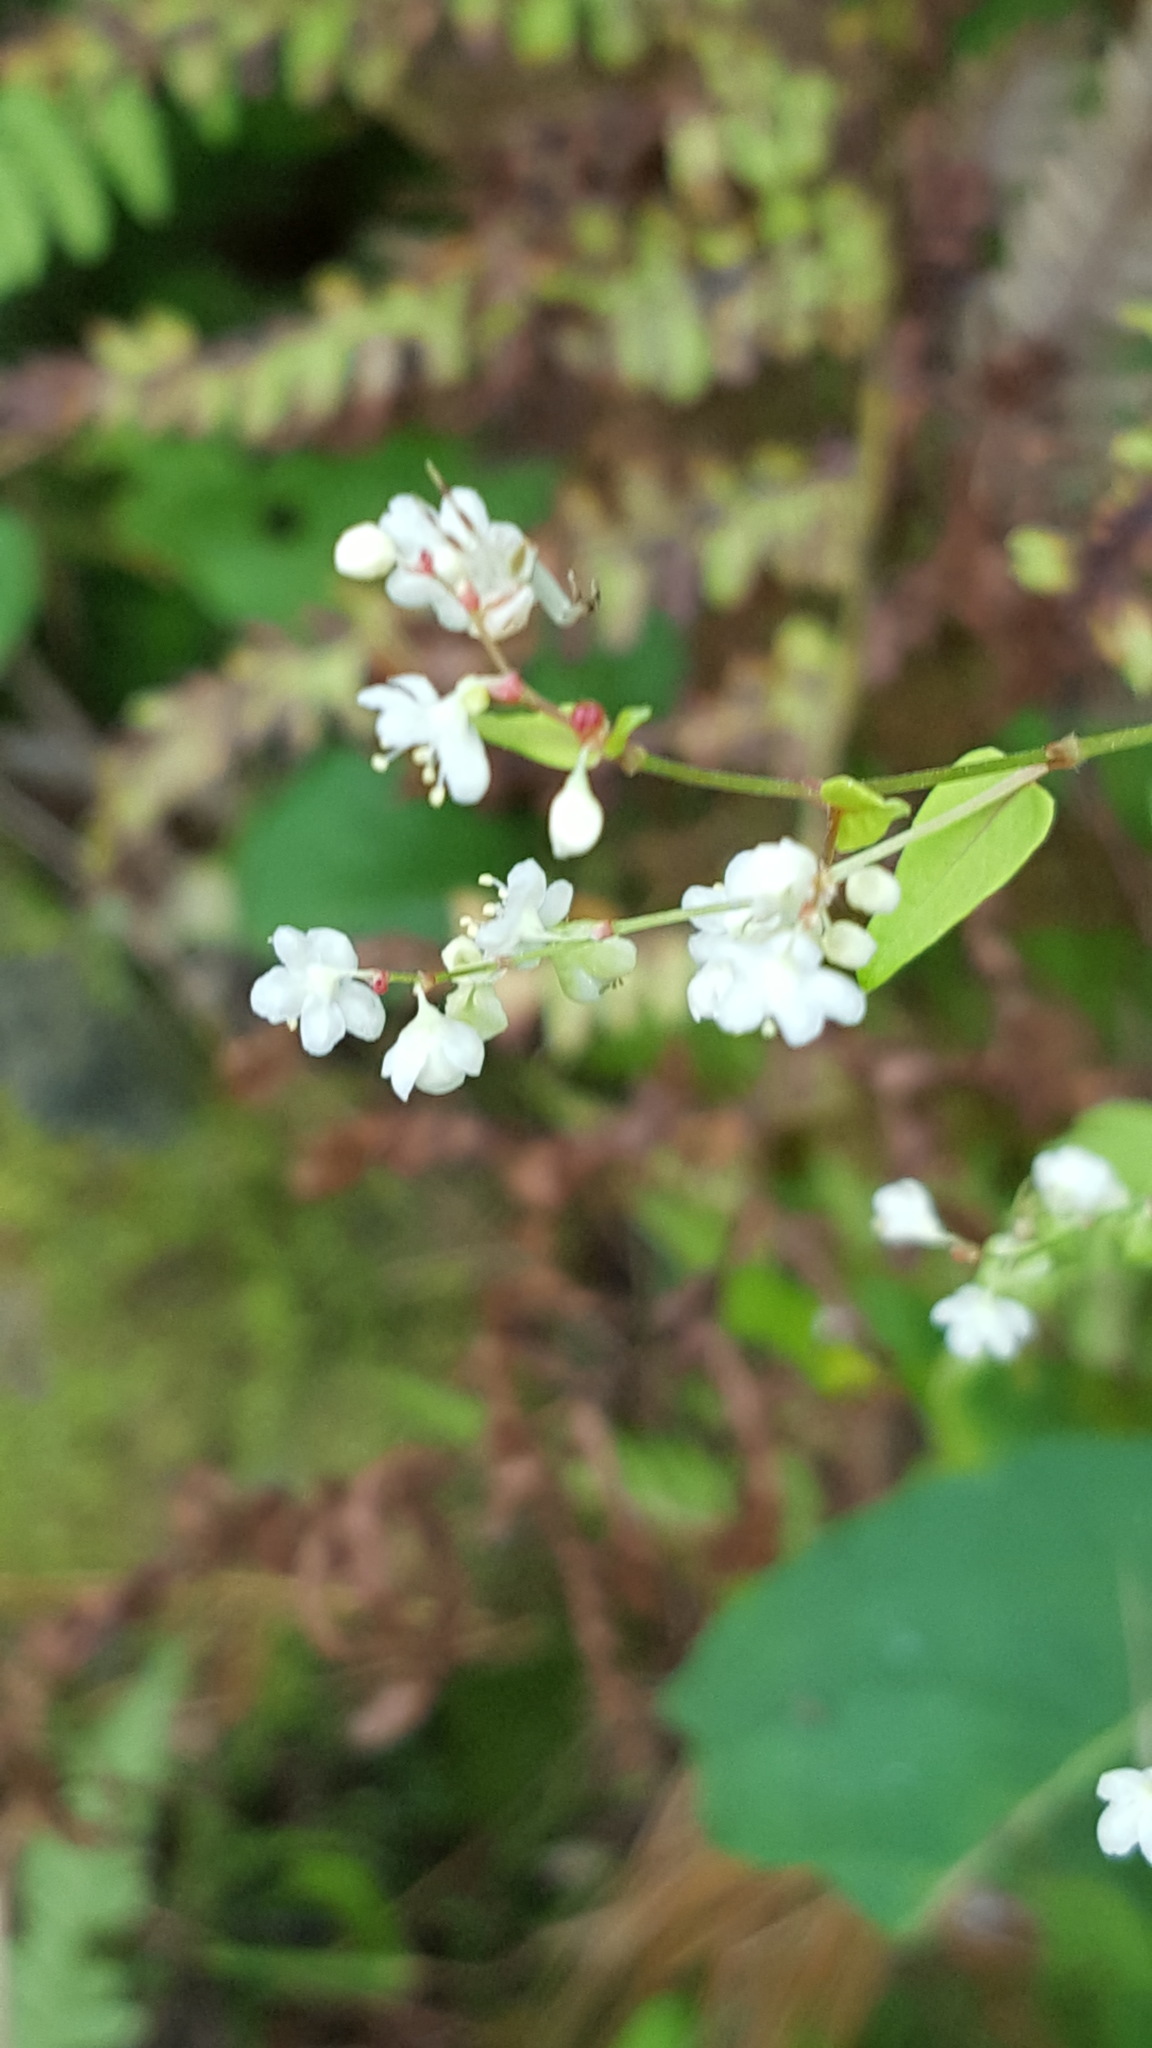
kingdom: Plantae
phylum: Tracheophyta
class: Magnoliopsida
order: Caryophyllales
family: Polygonaceae
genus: Parogonum
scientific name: Parogonum ciliinode
